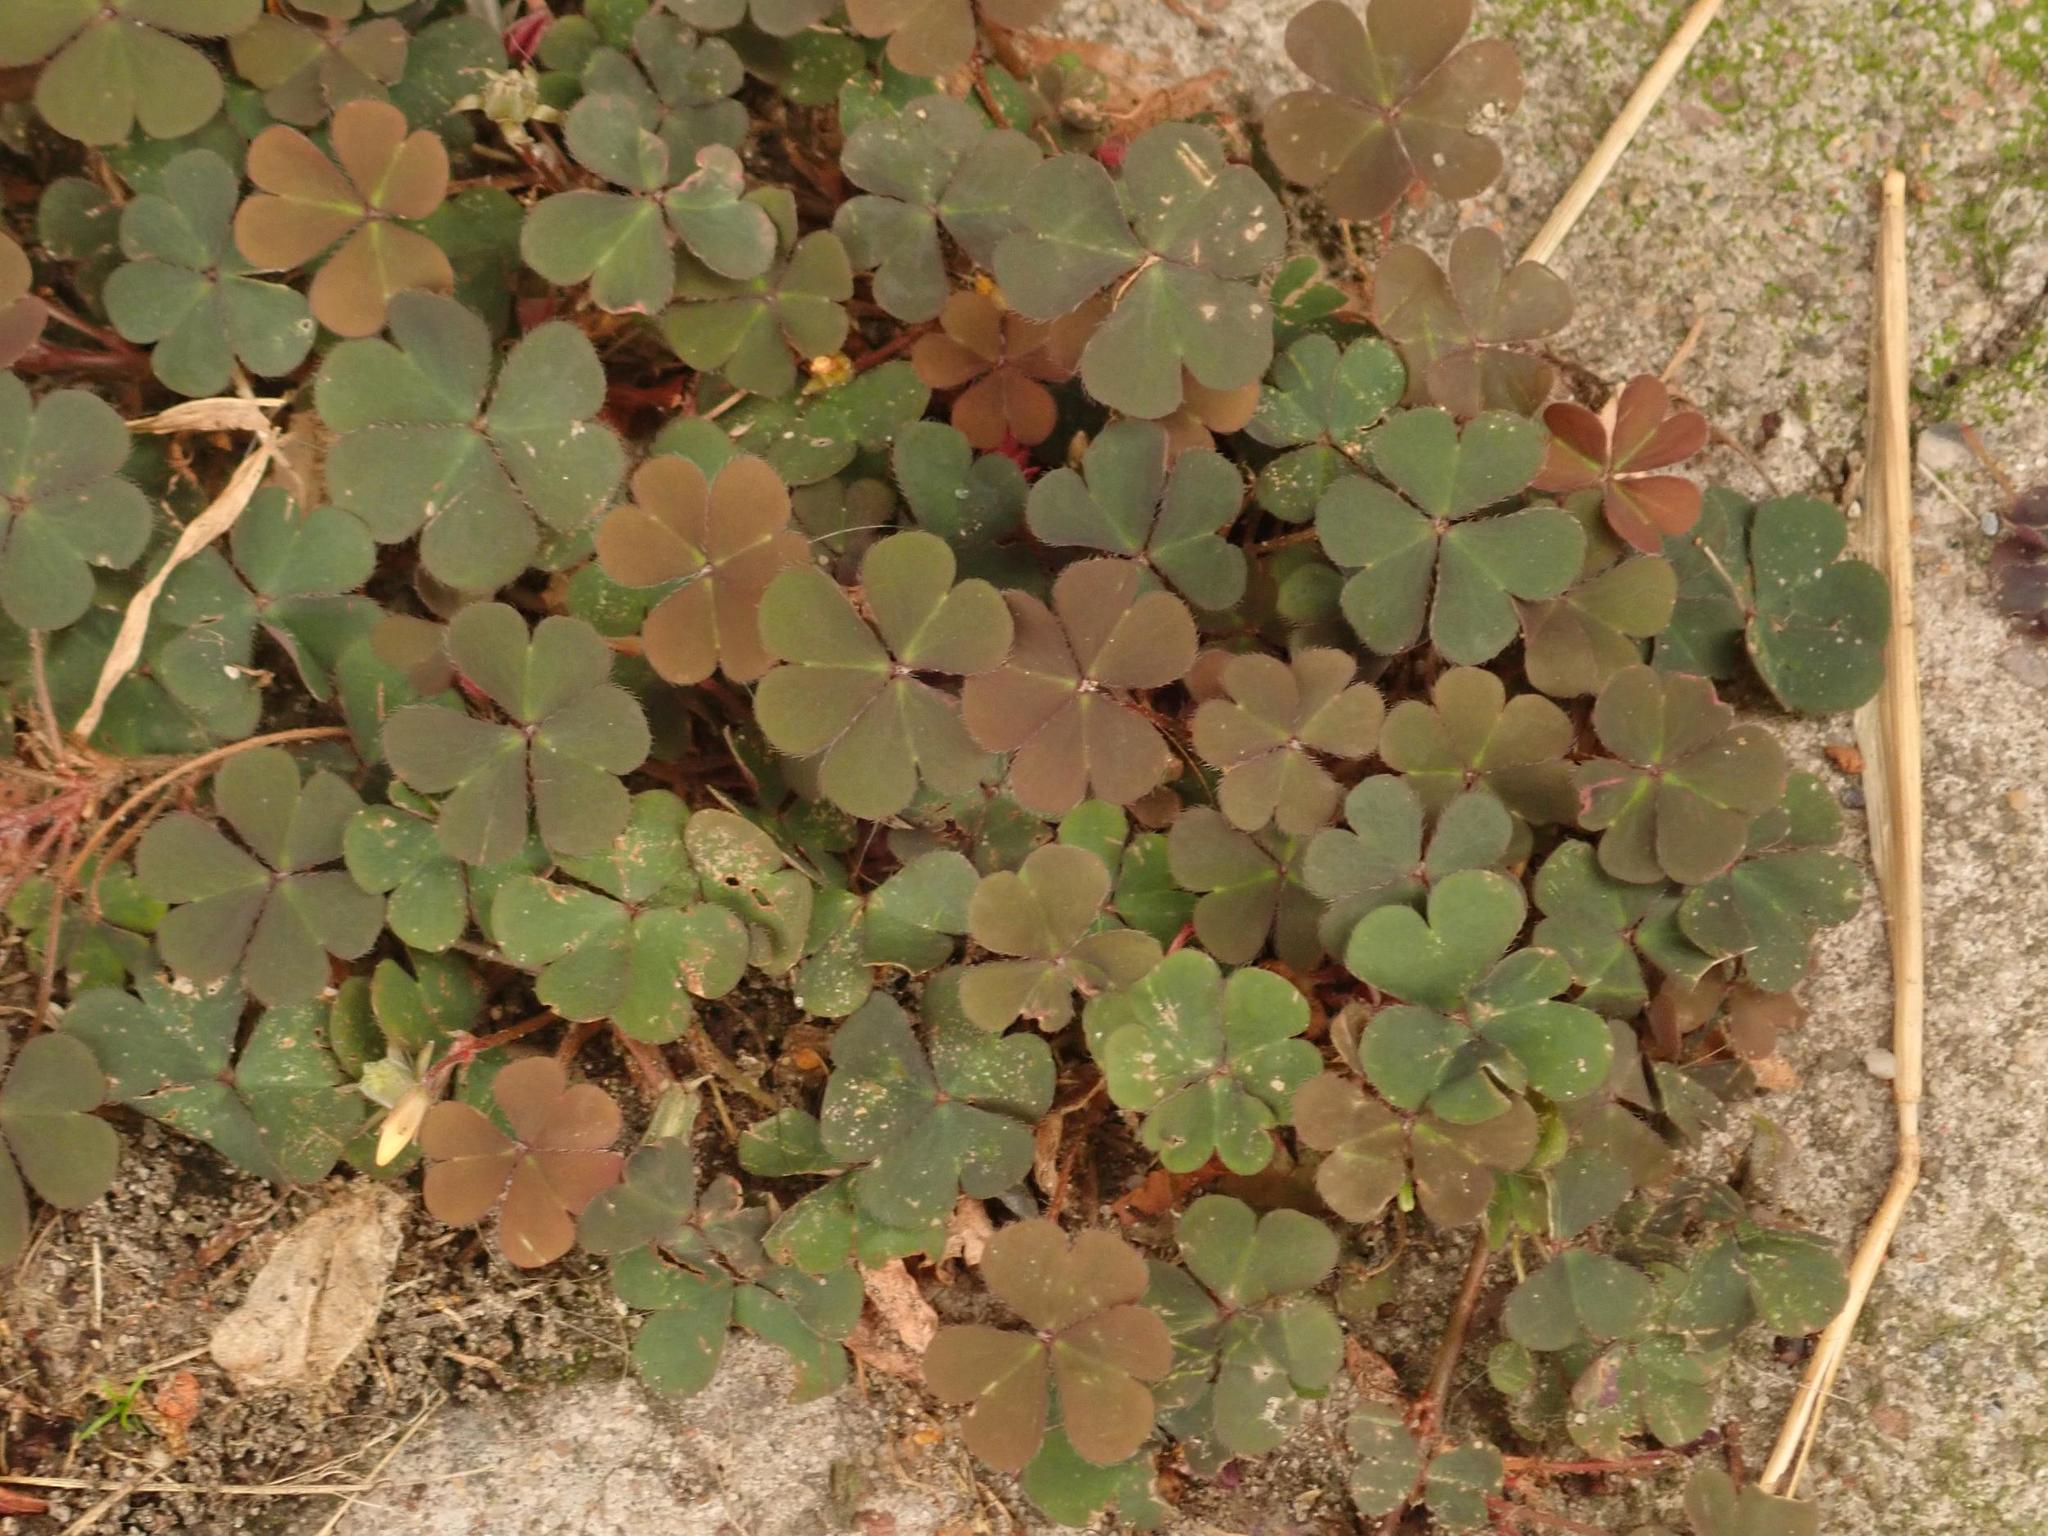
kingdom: Plantae
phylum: Tracheophyta
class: Magnoliopsida
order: Oxalidales
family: Oxalidaceae
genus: Oxalis
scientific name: Oxalis corniculata
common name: Procumbent yellow-sorrel
